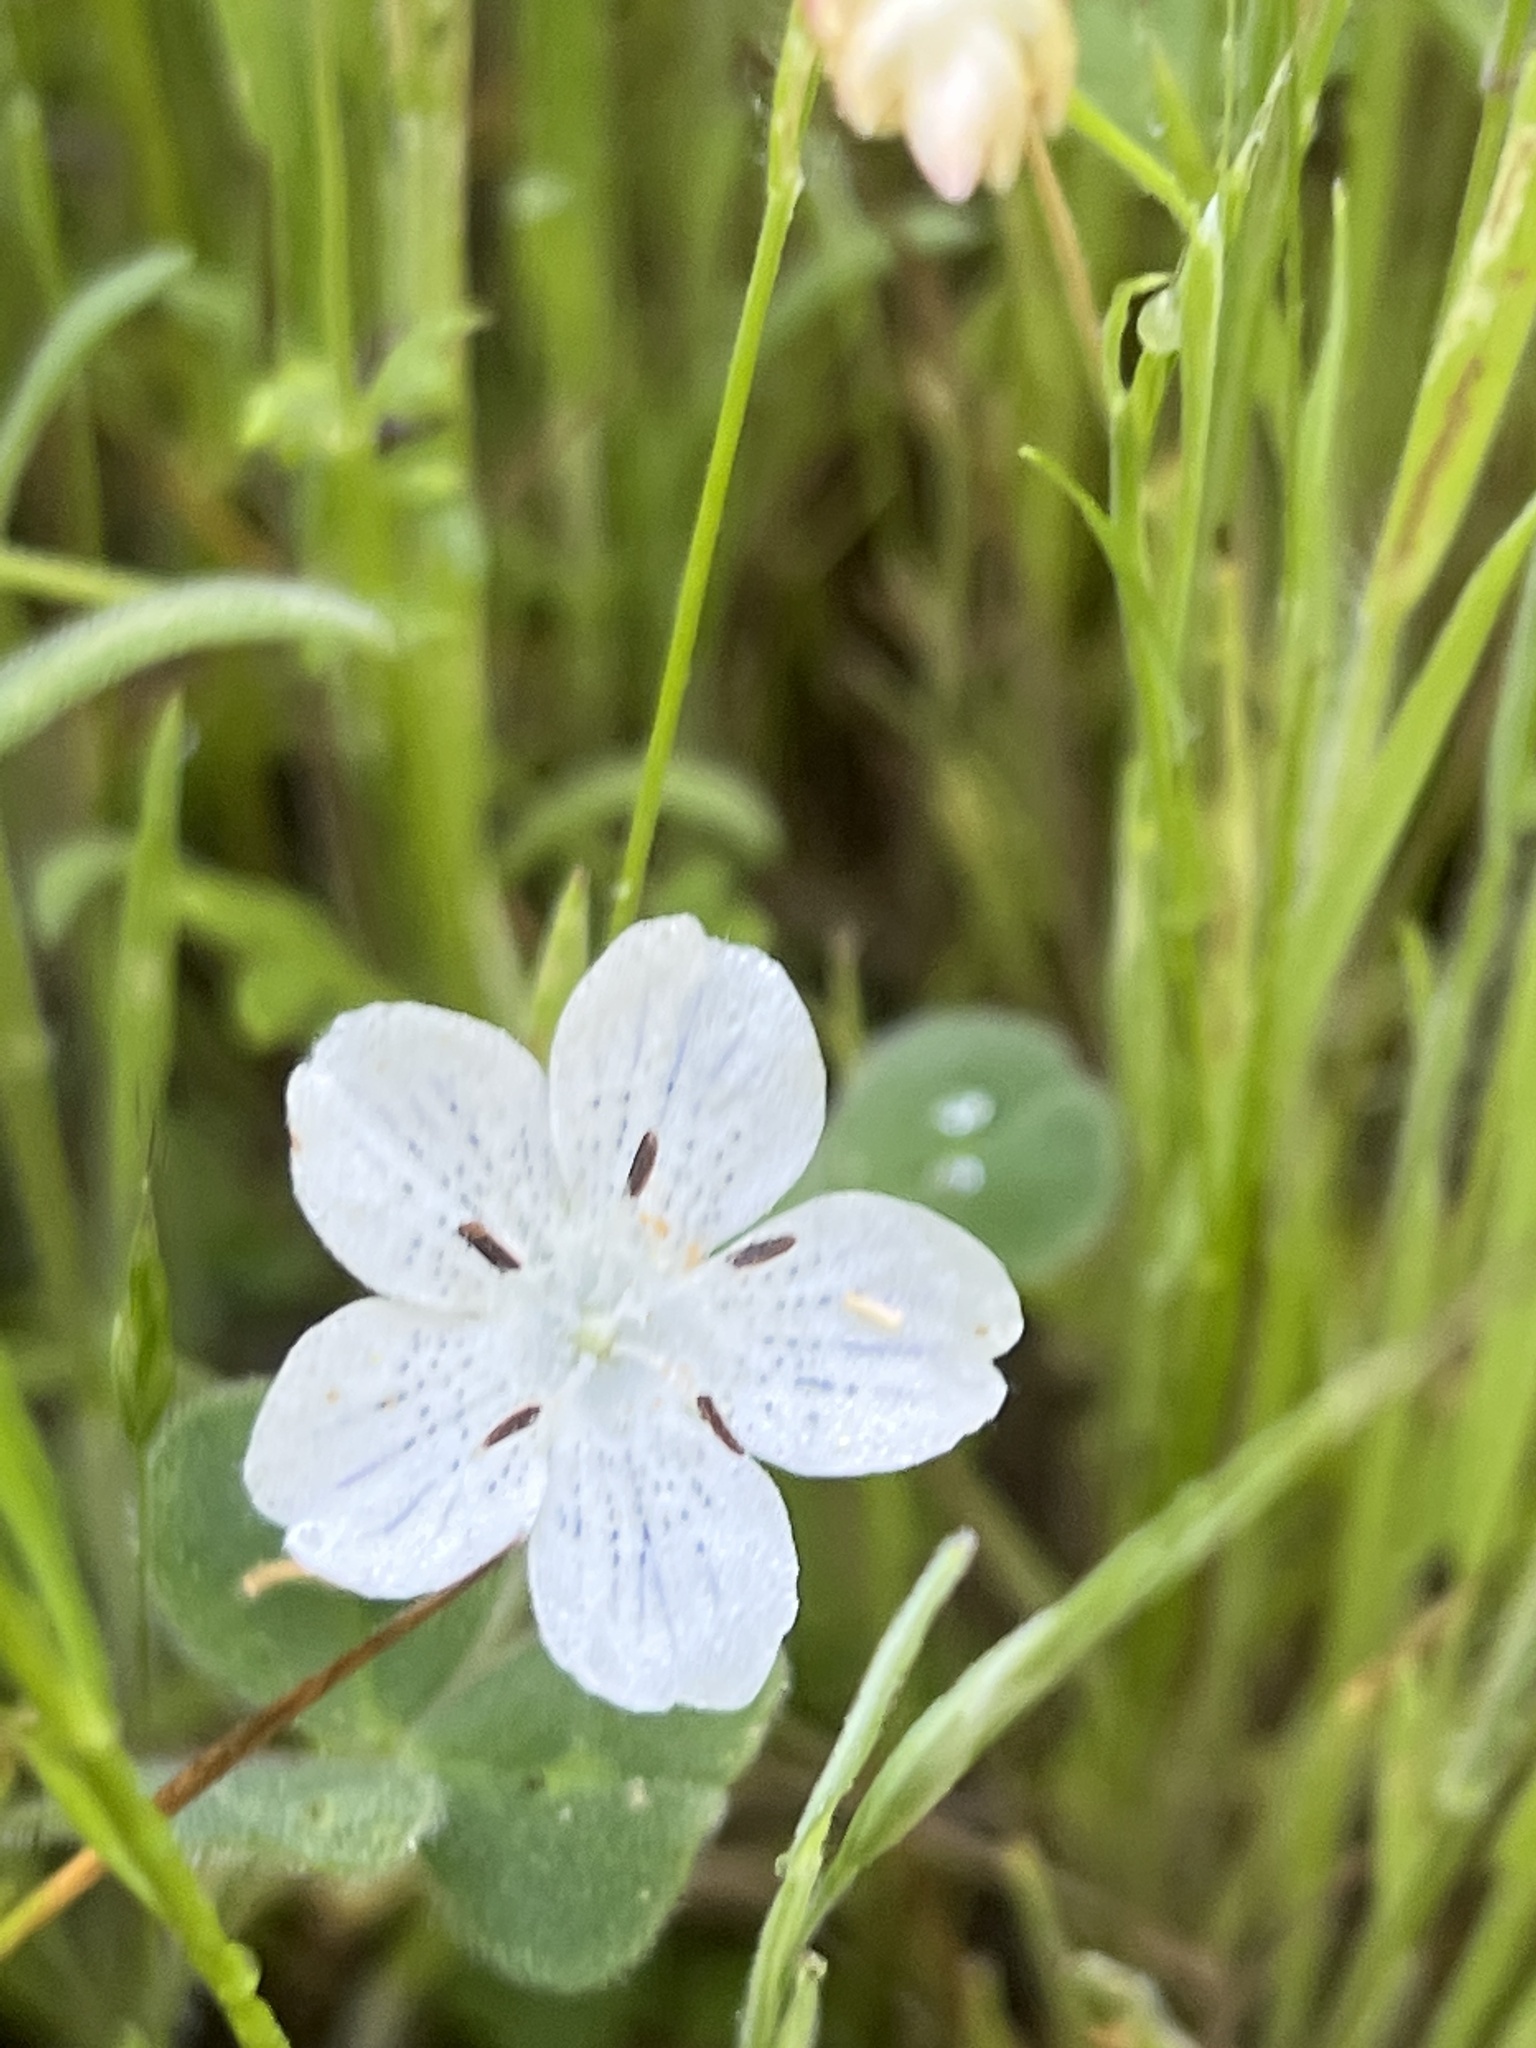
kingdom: Plantae
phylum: Tracheophyta
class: Magnoliopsida
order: Boraginales
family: Hydrophyllaceae
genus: Nemophila
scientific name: Nemophila menziesii
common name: Baby's-blue-eyes
